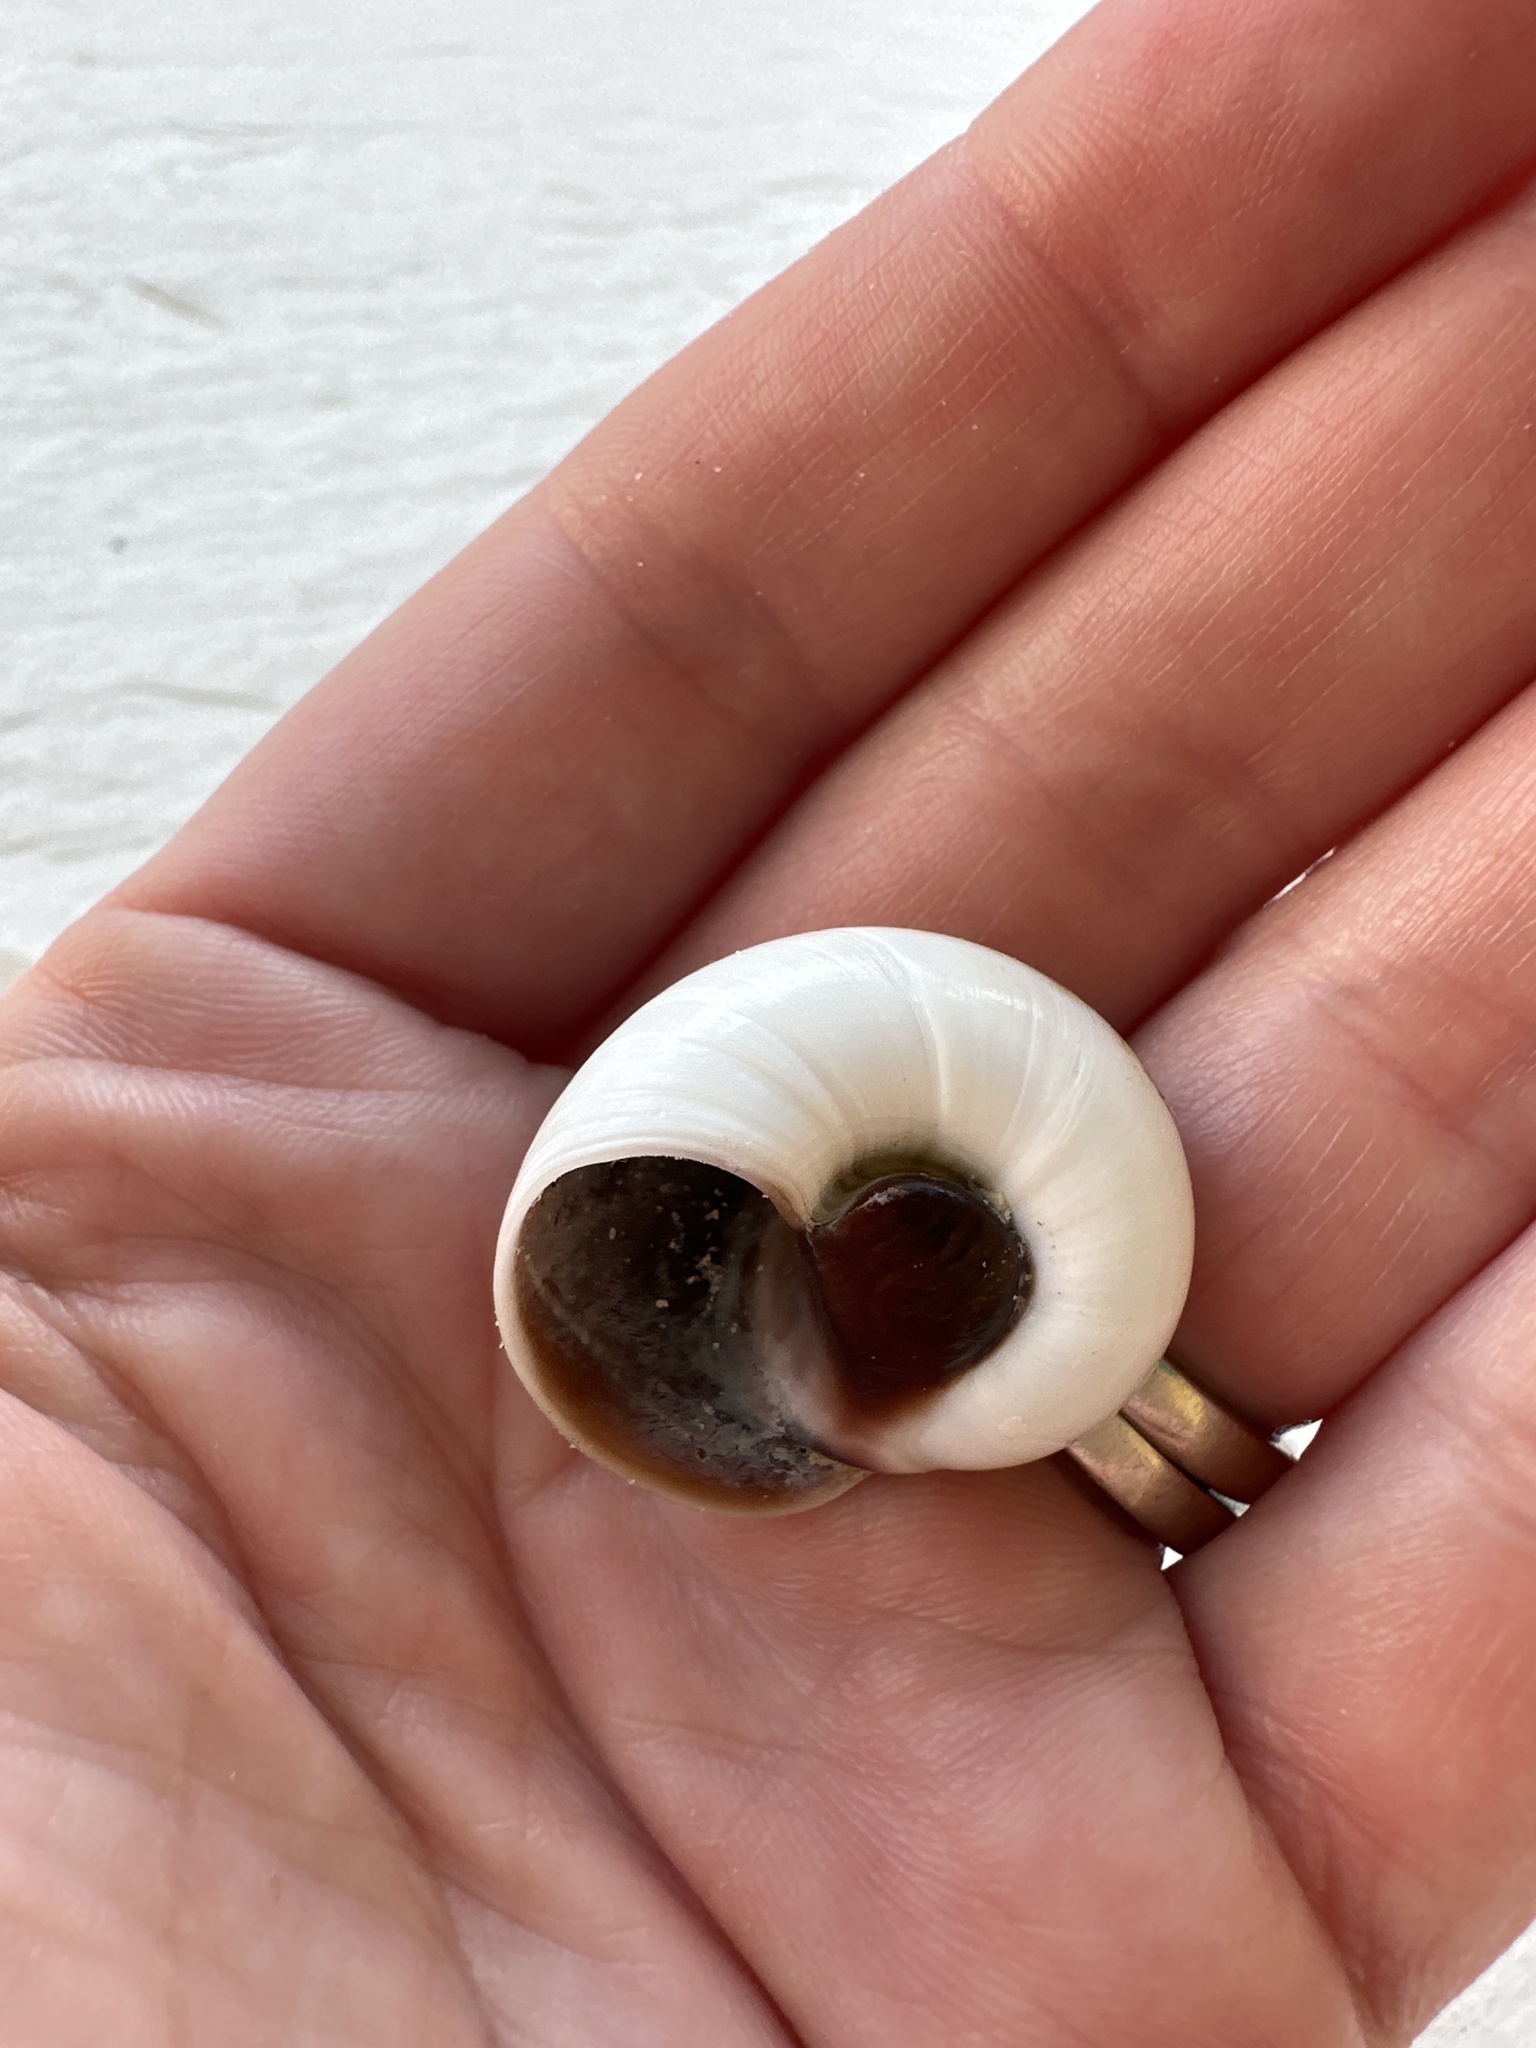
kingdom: Animalia
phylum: Mollusca
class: Gastropoda
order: Littorinimorpha
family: Naticidae
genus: Neverita
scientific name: Neverita duplicata
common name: Lobed moonsnail
